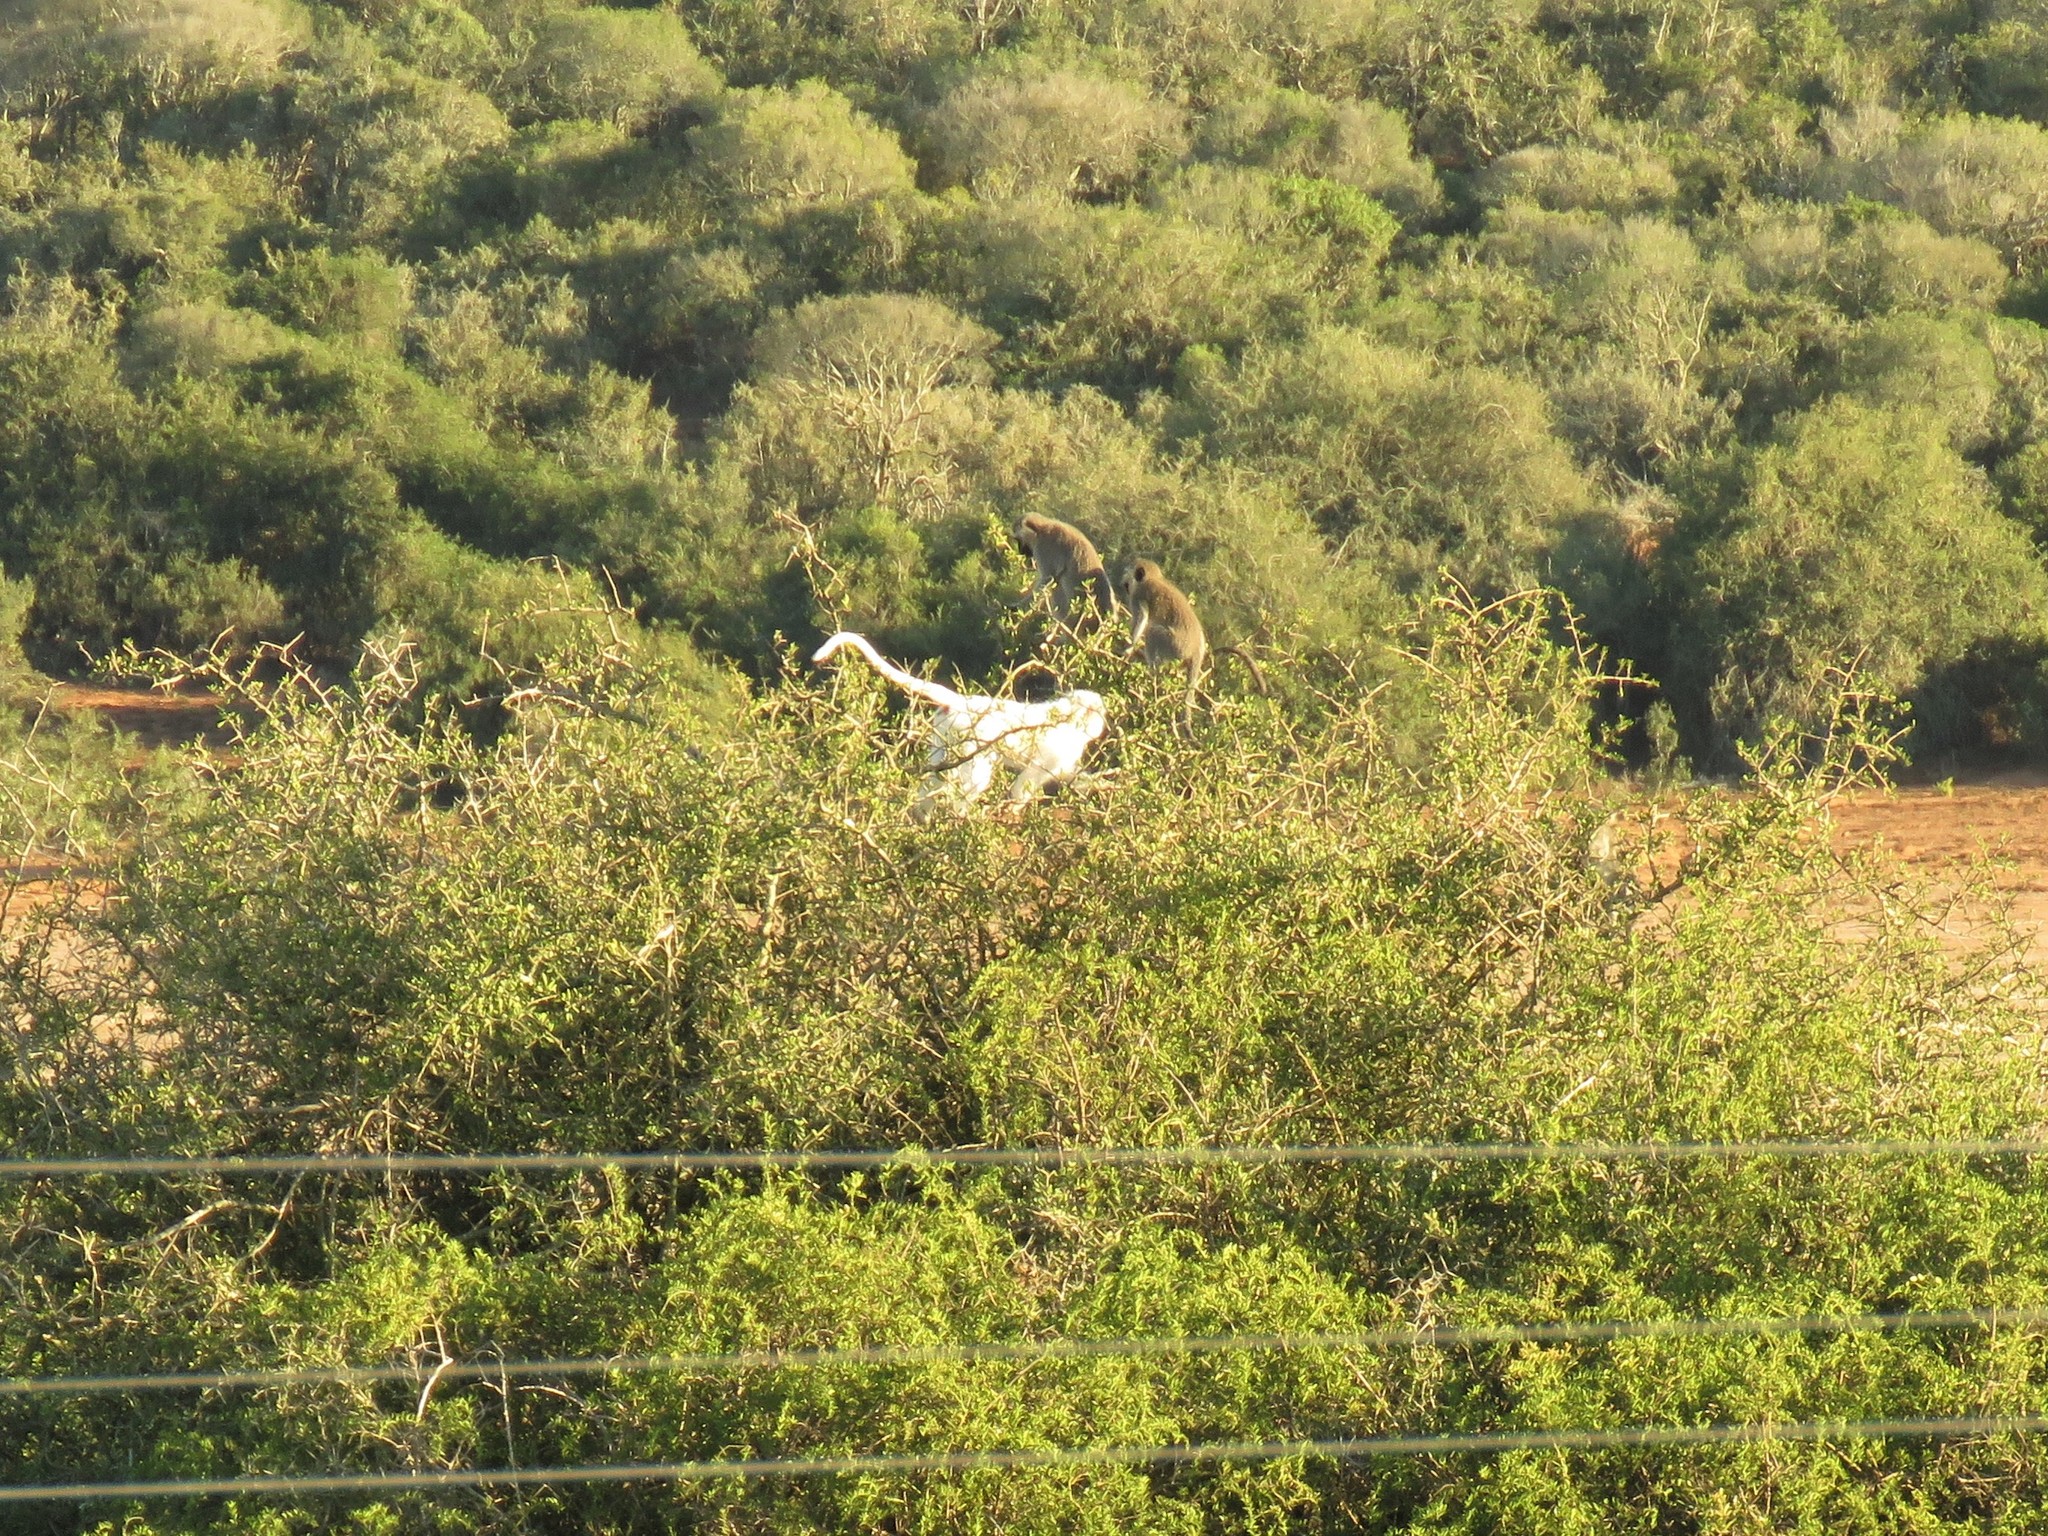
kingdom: Animalia
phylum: Chordata
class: Mammalia
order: Primates
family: Cercopithecidae
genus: Chlorocebus
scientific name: Chlorocebus pygerythrus
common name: Vervet monkey
